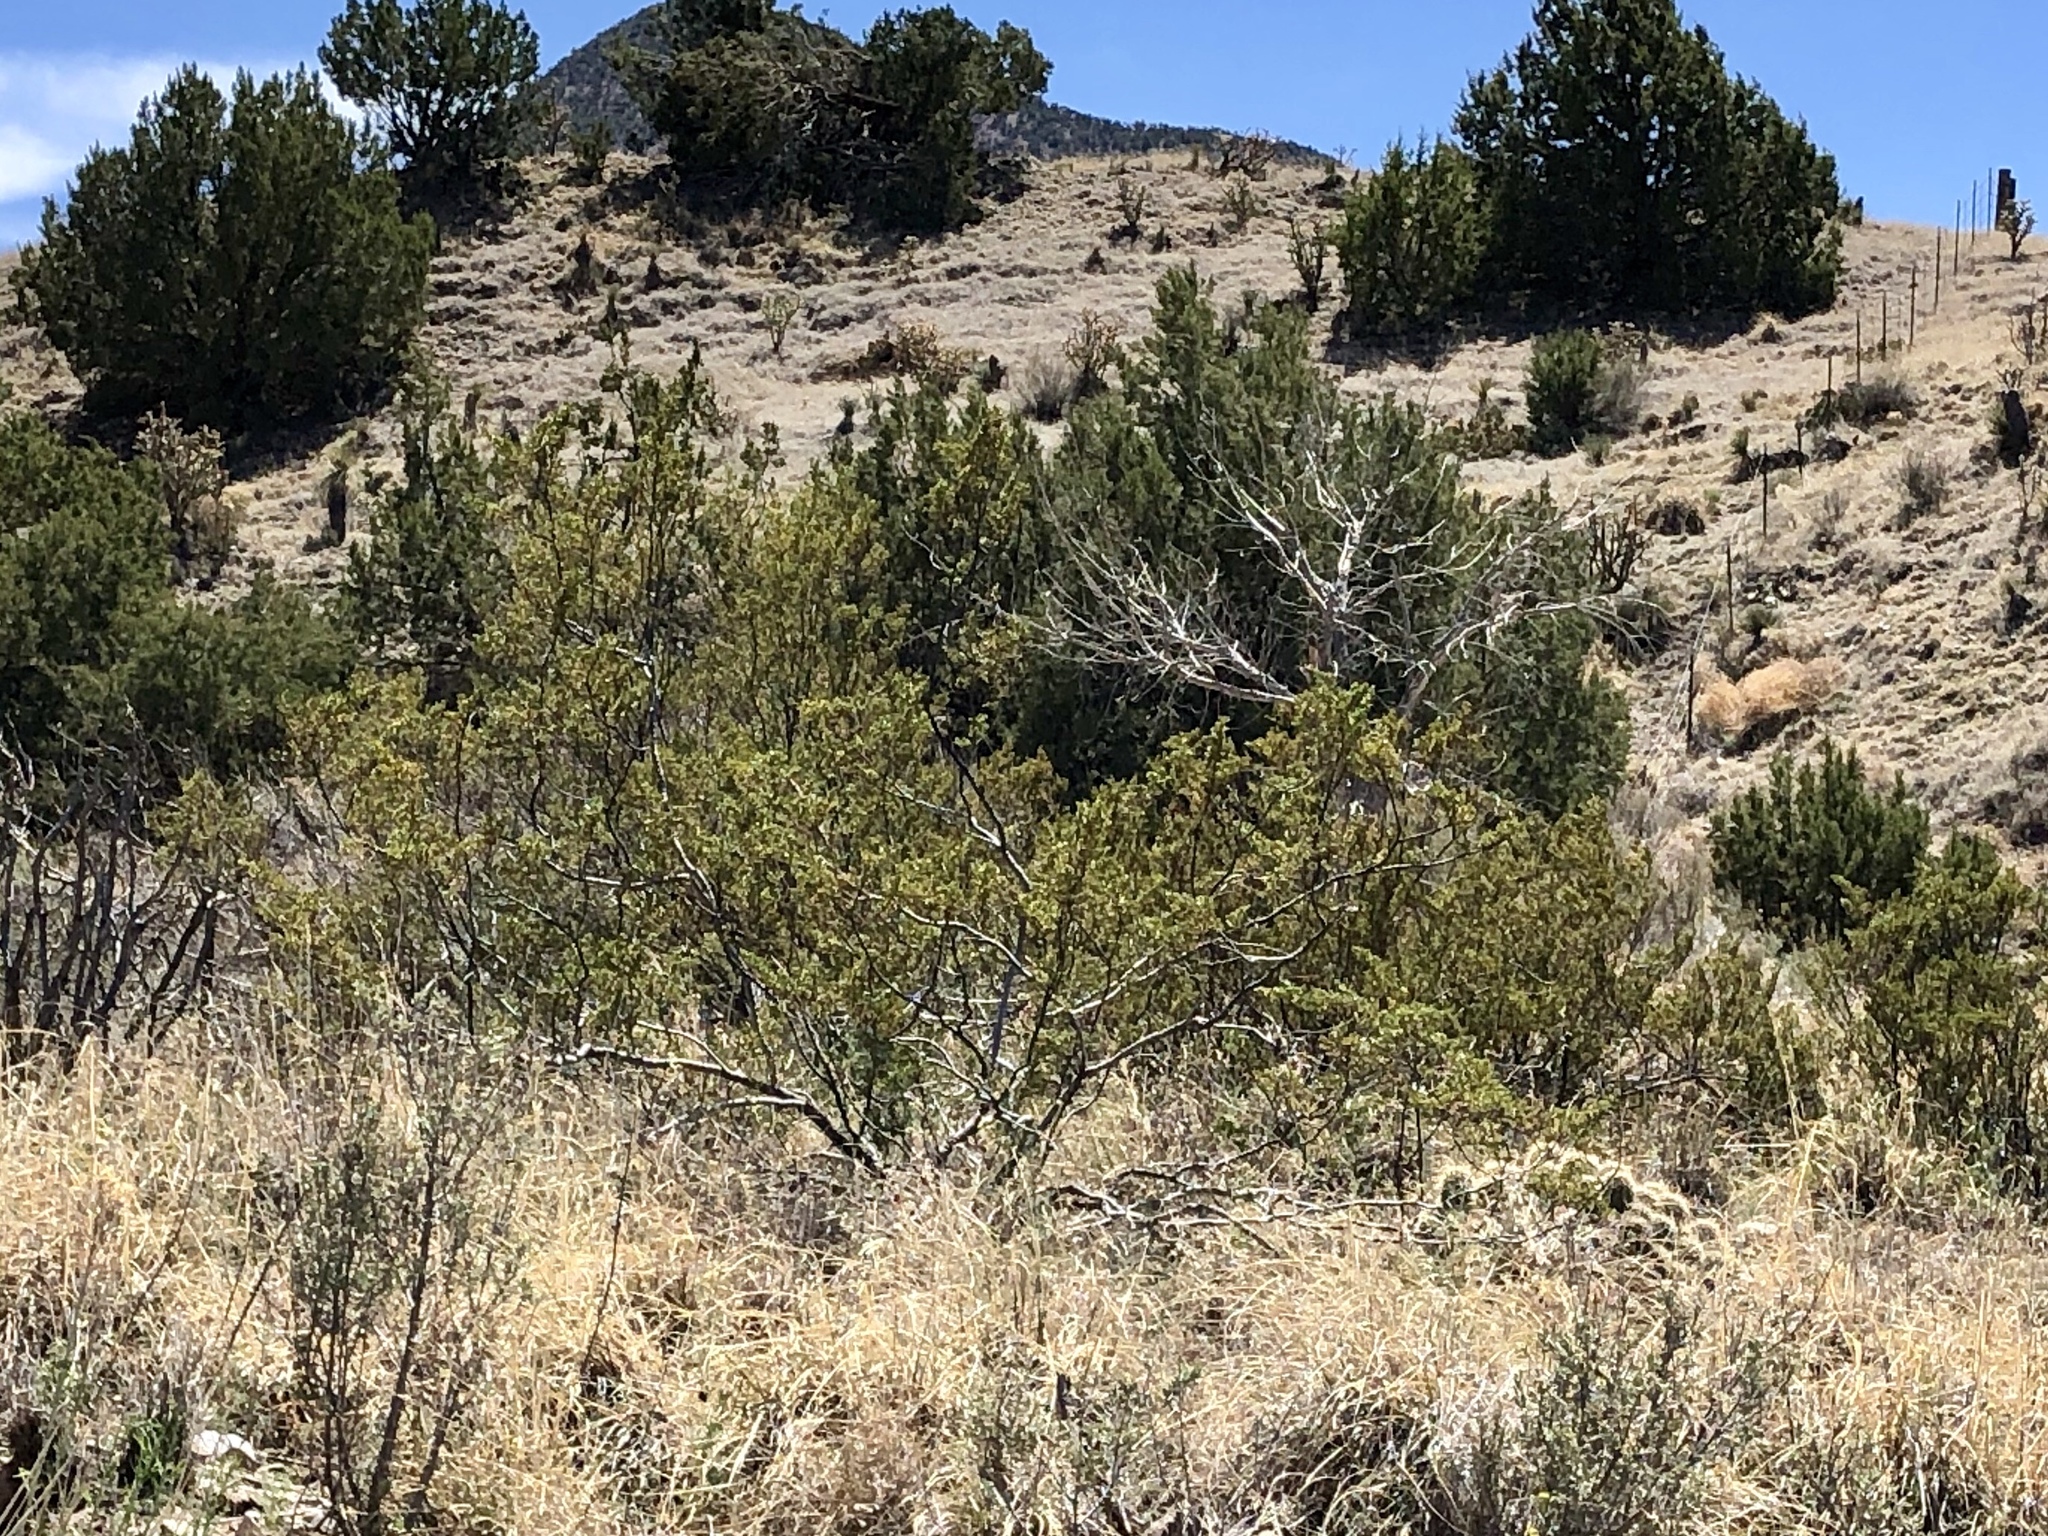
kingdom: Plantae
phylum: Tracheophyta
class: Magnoliopsida
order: Zygophyllales
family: Zygophyllaceae
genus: Larrea
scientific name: Larrea tridentata
